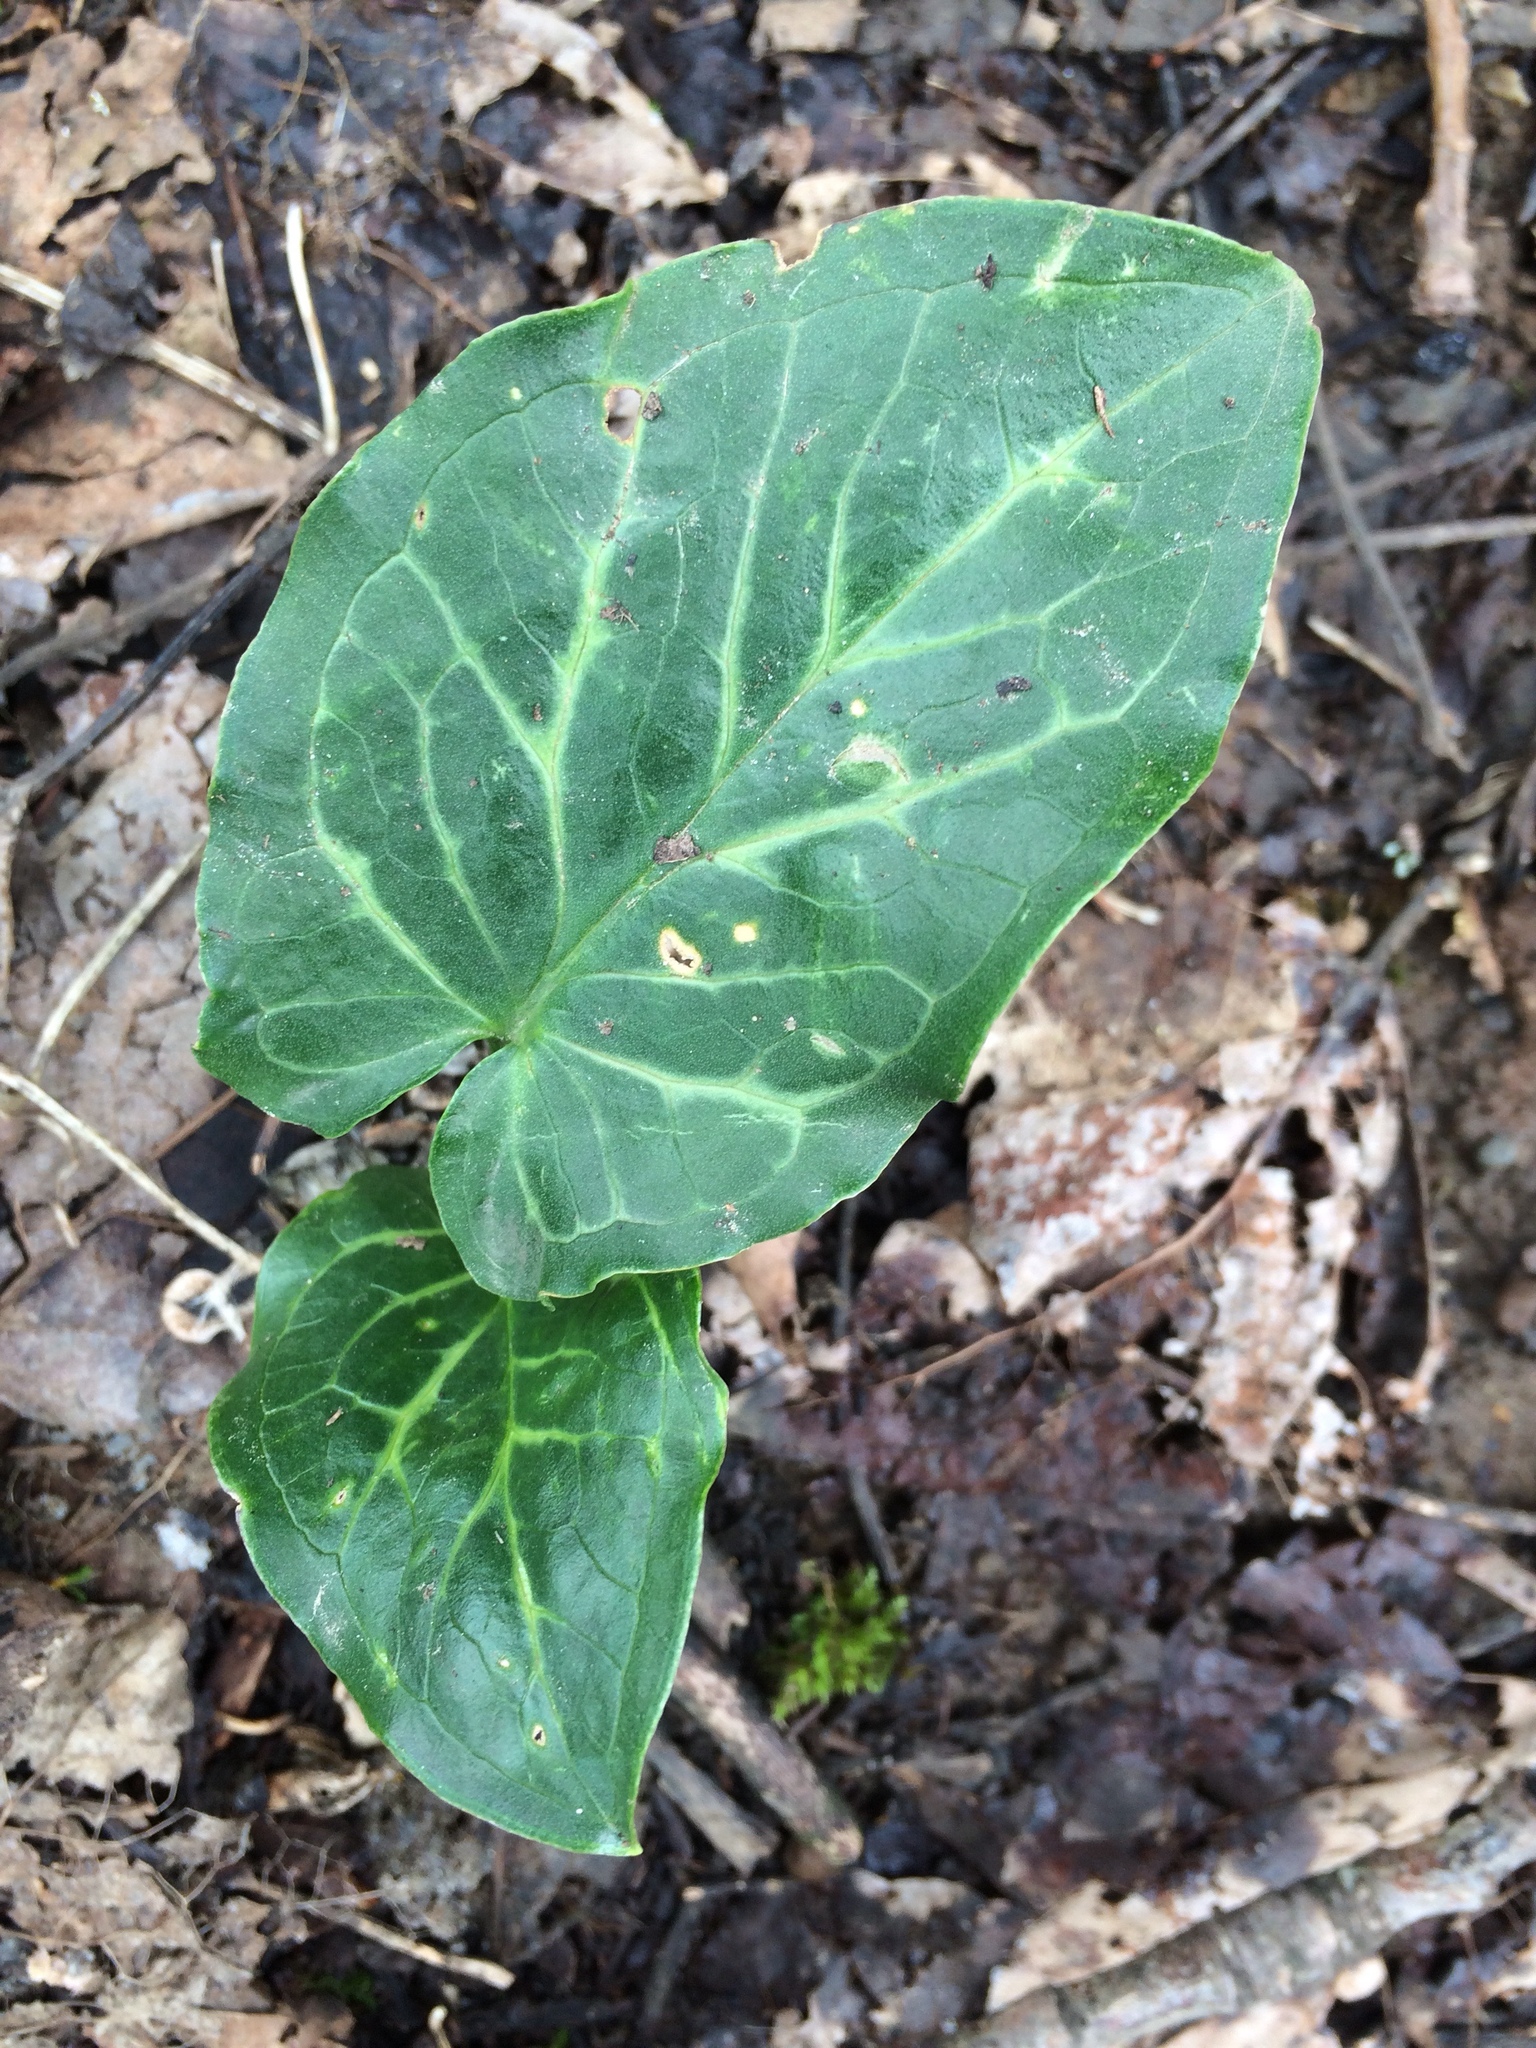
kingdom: Plantae
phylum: Tracheophyta
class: Liliopsida
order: Alismatales
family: Araceae
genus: Arum
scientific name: Arum italicum
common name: Italian lords-and-ladies
